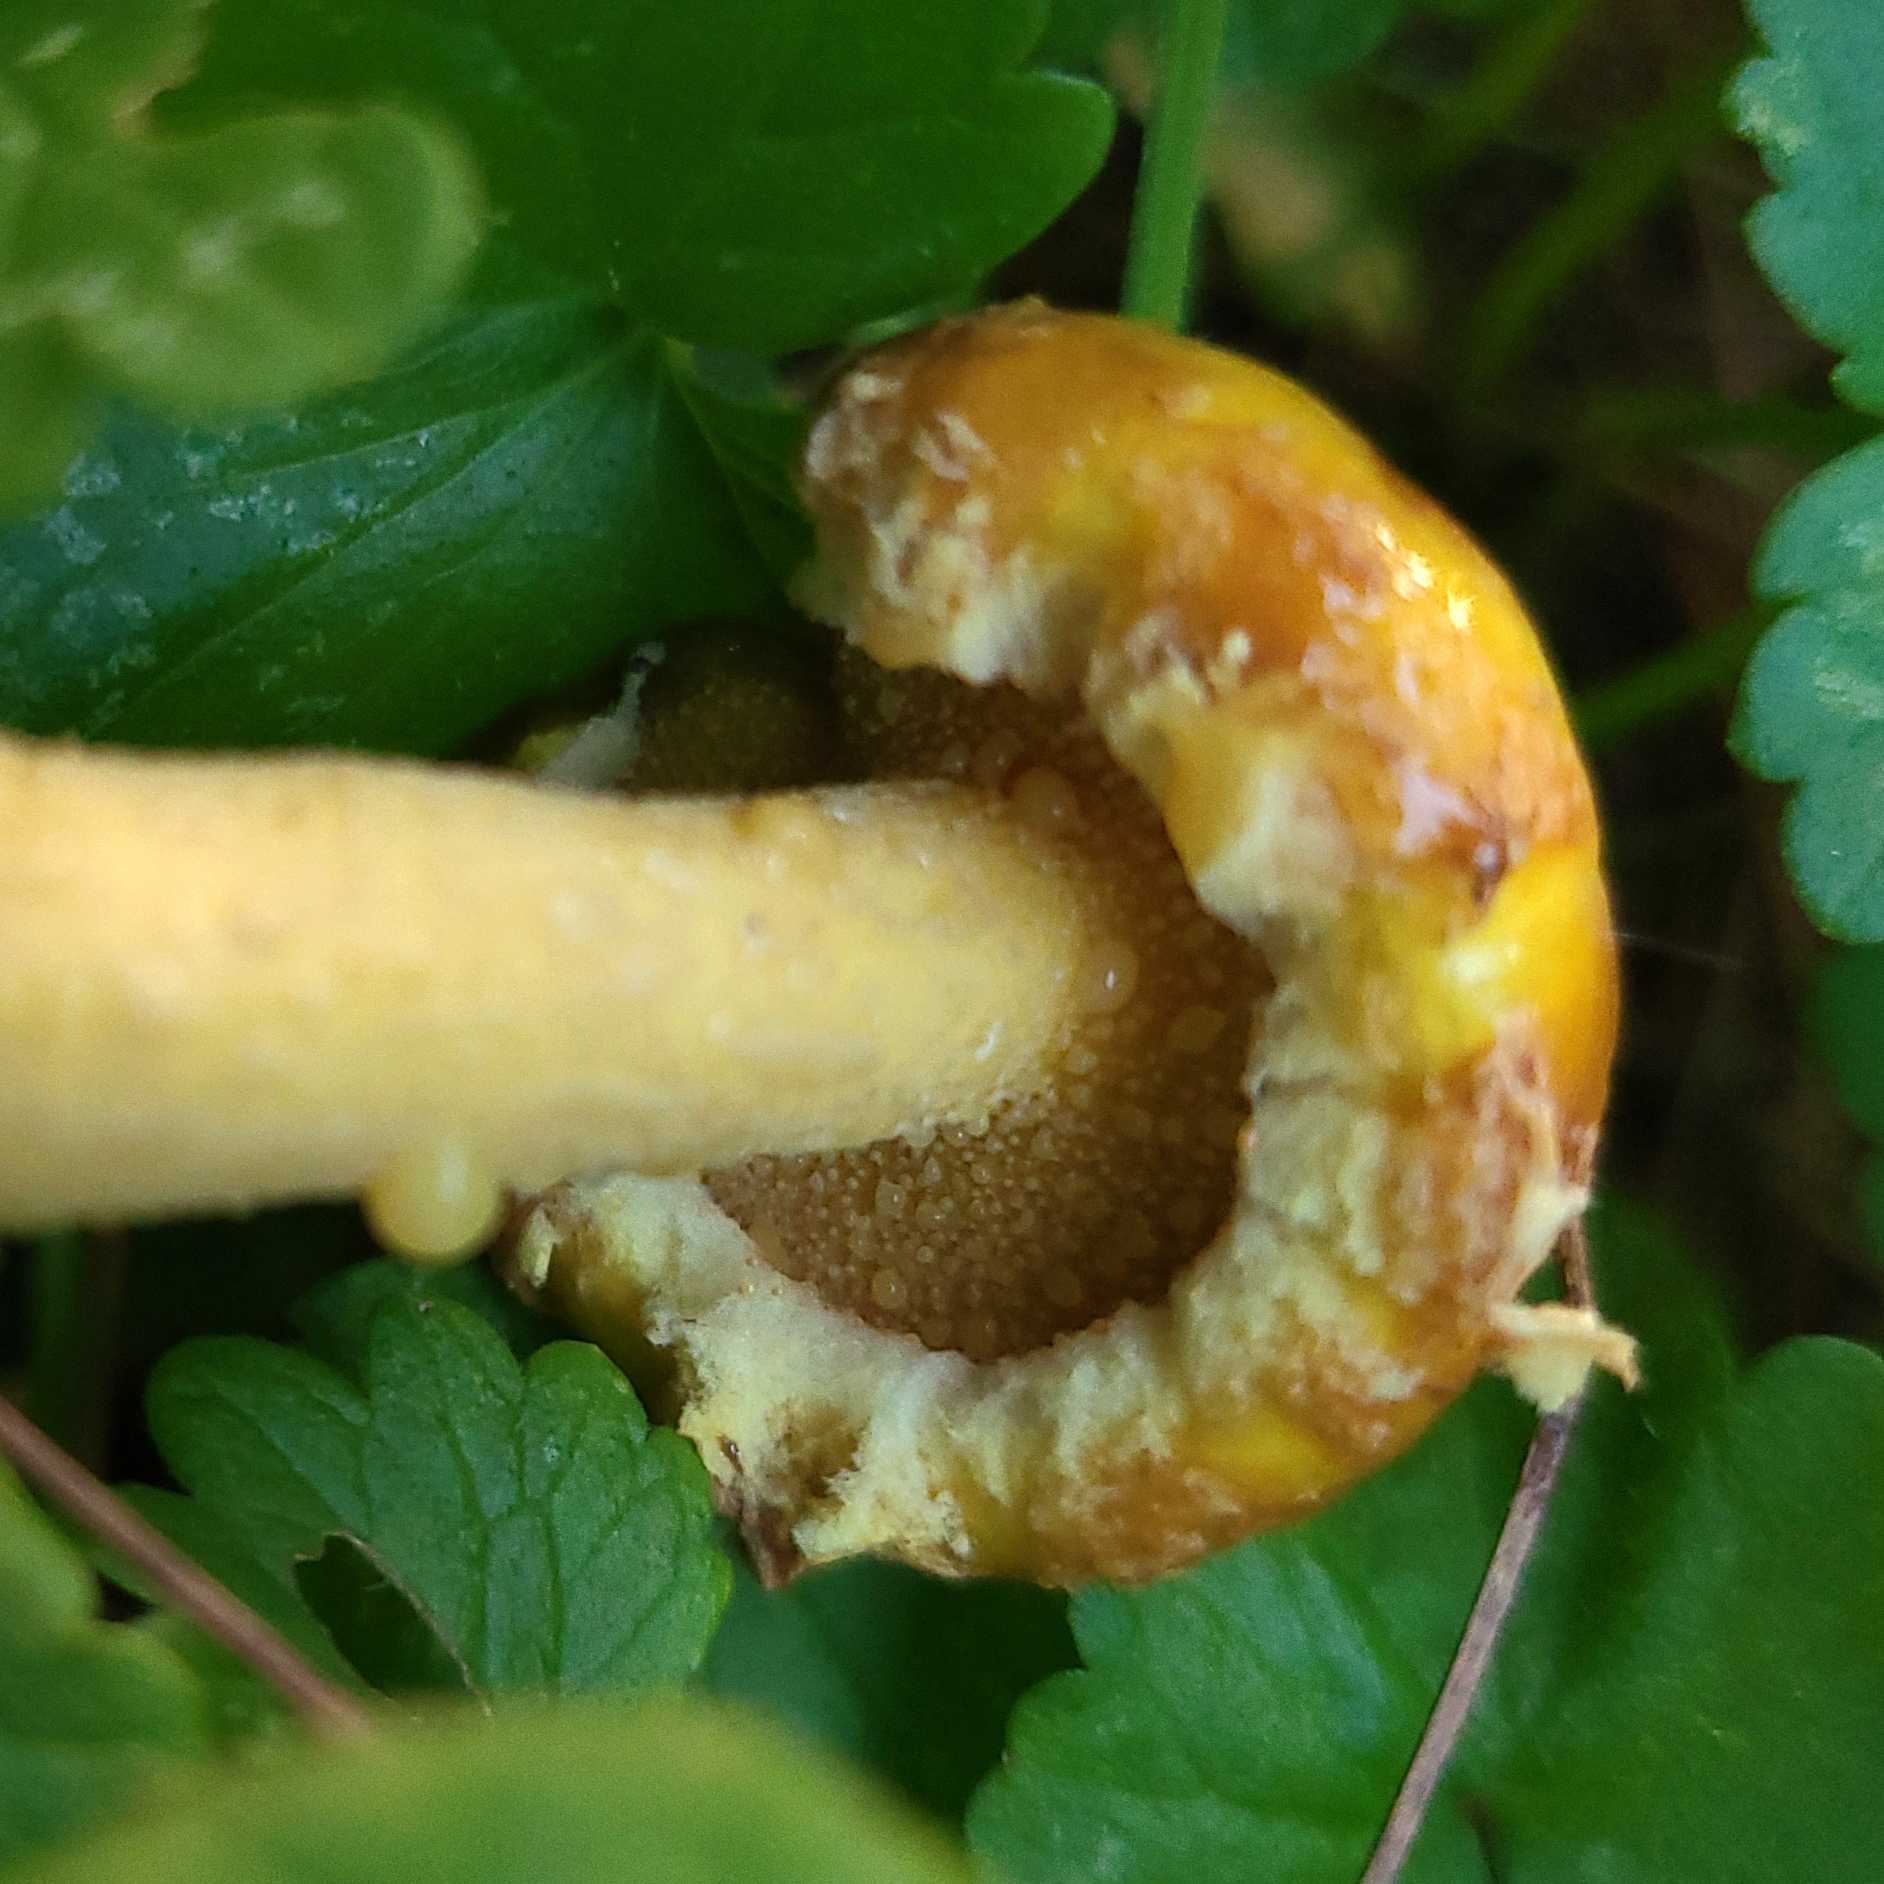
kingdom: Fungi
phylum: Basidiomycota
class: Agaricomycetes
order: Boletales
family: Suillaceae
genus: Suillus
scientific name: Suillus americanus
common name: Chicken fat mushroom
